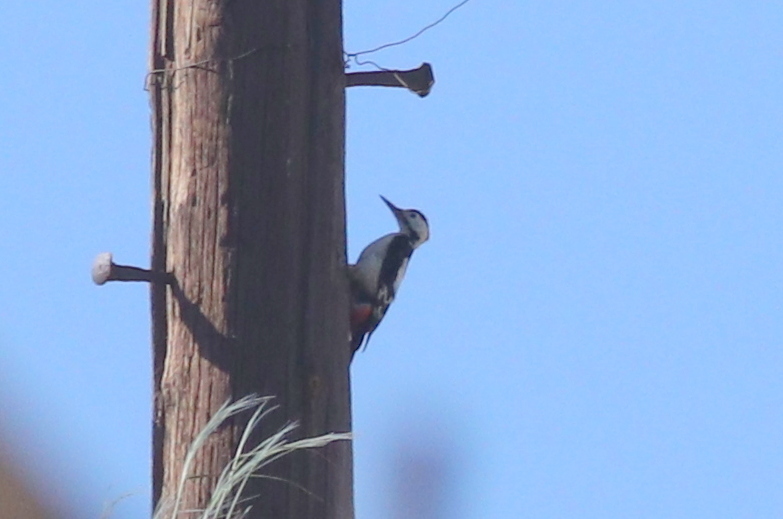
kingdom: Animalia
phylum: Chordata
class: Aves
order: Piciformes
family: Picidae
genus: Dendrocopos
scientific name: Dendrocopos syriacus
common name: Syrian woodpecker
